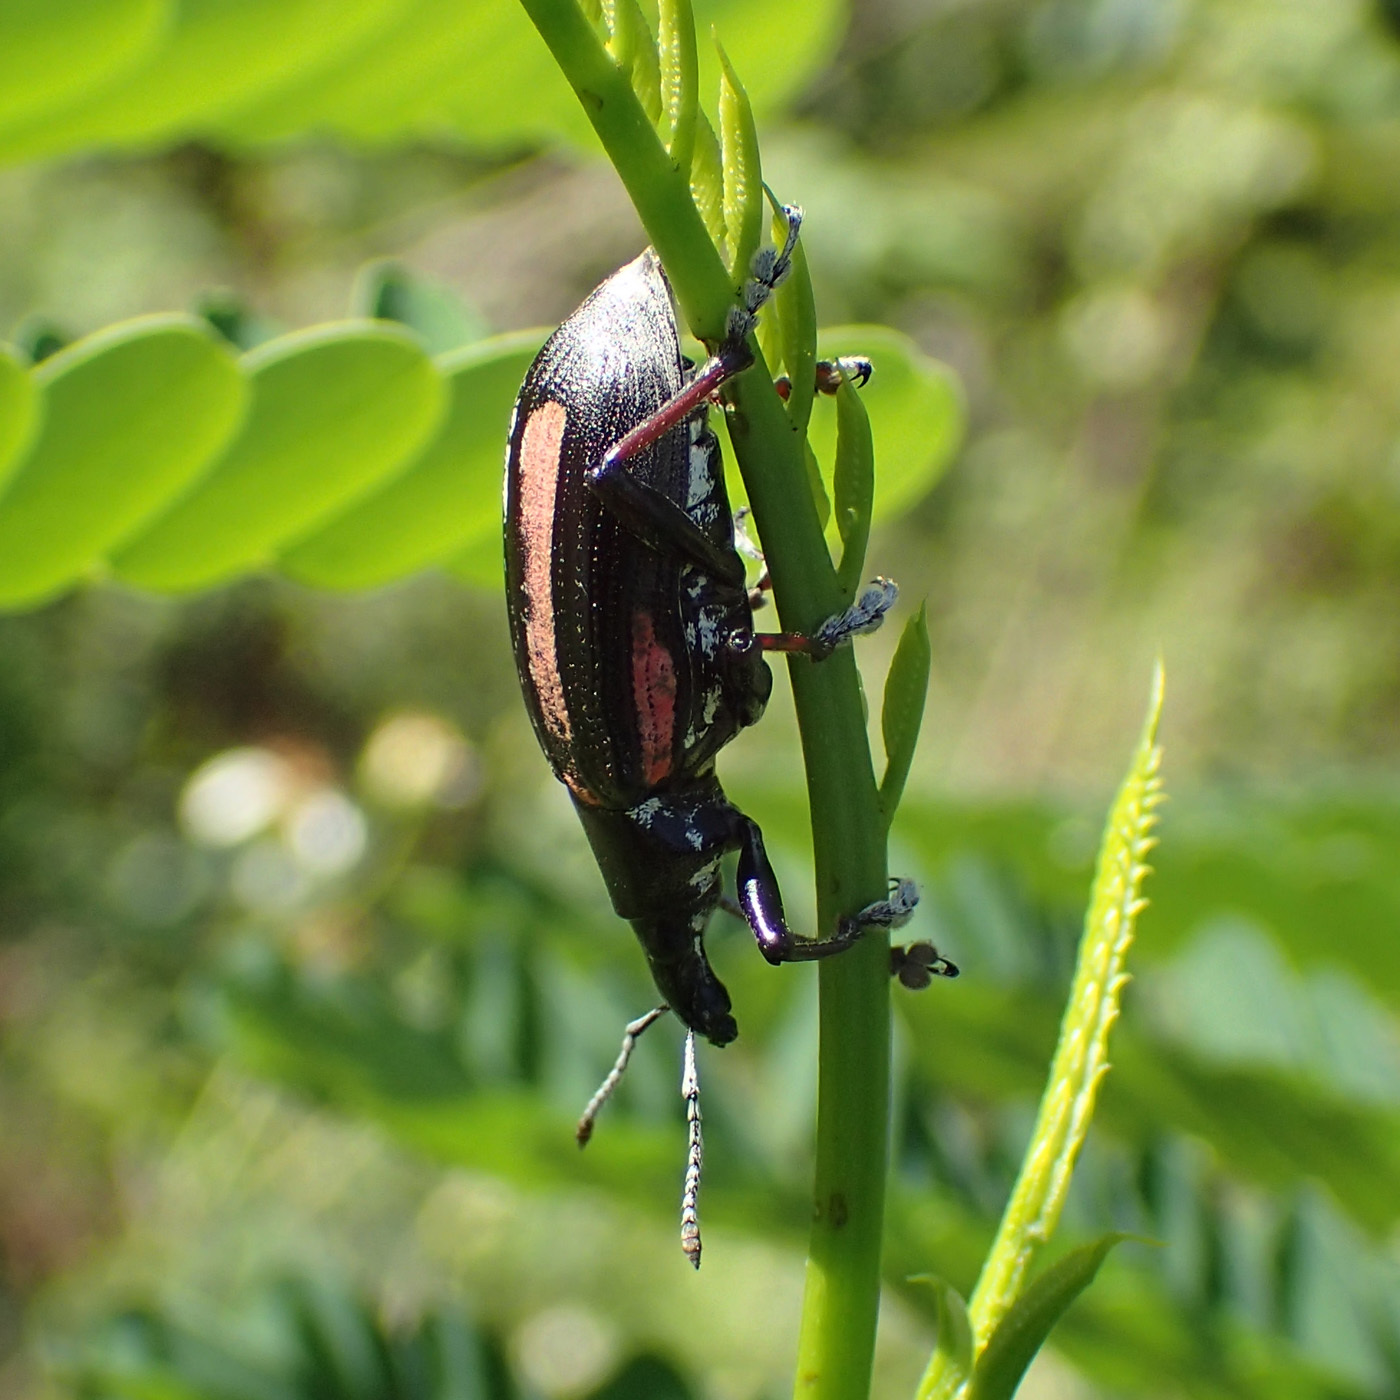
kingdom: Animalia
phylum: Arthropoda
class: Insecta
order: Coleoptera
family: Curculionidae
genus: Exophthalmus
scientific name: Exophthalmus vittatus
